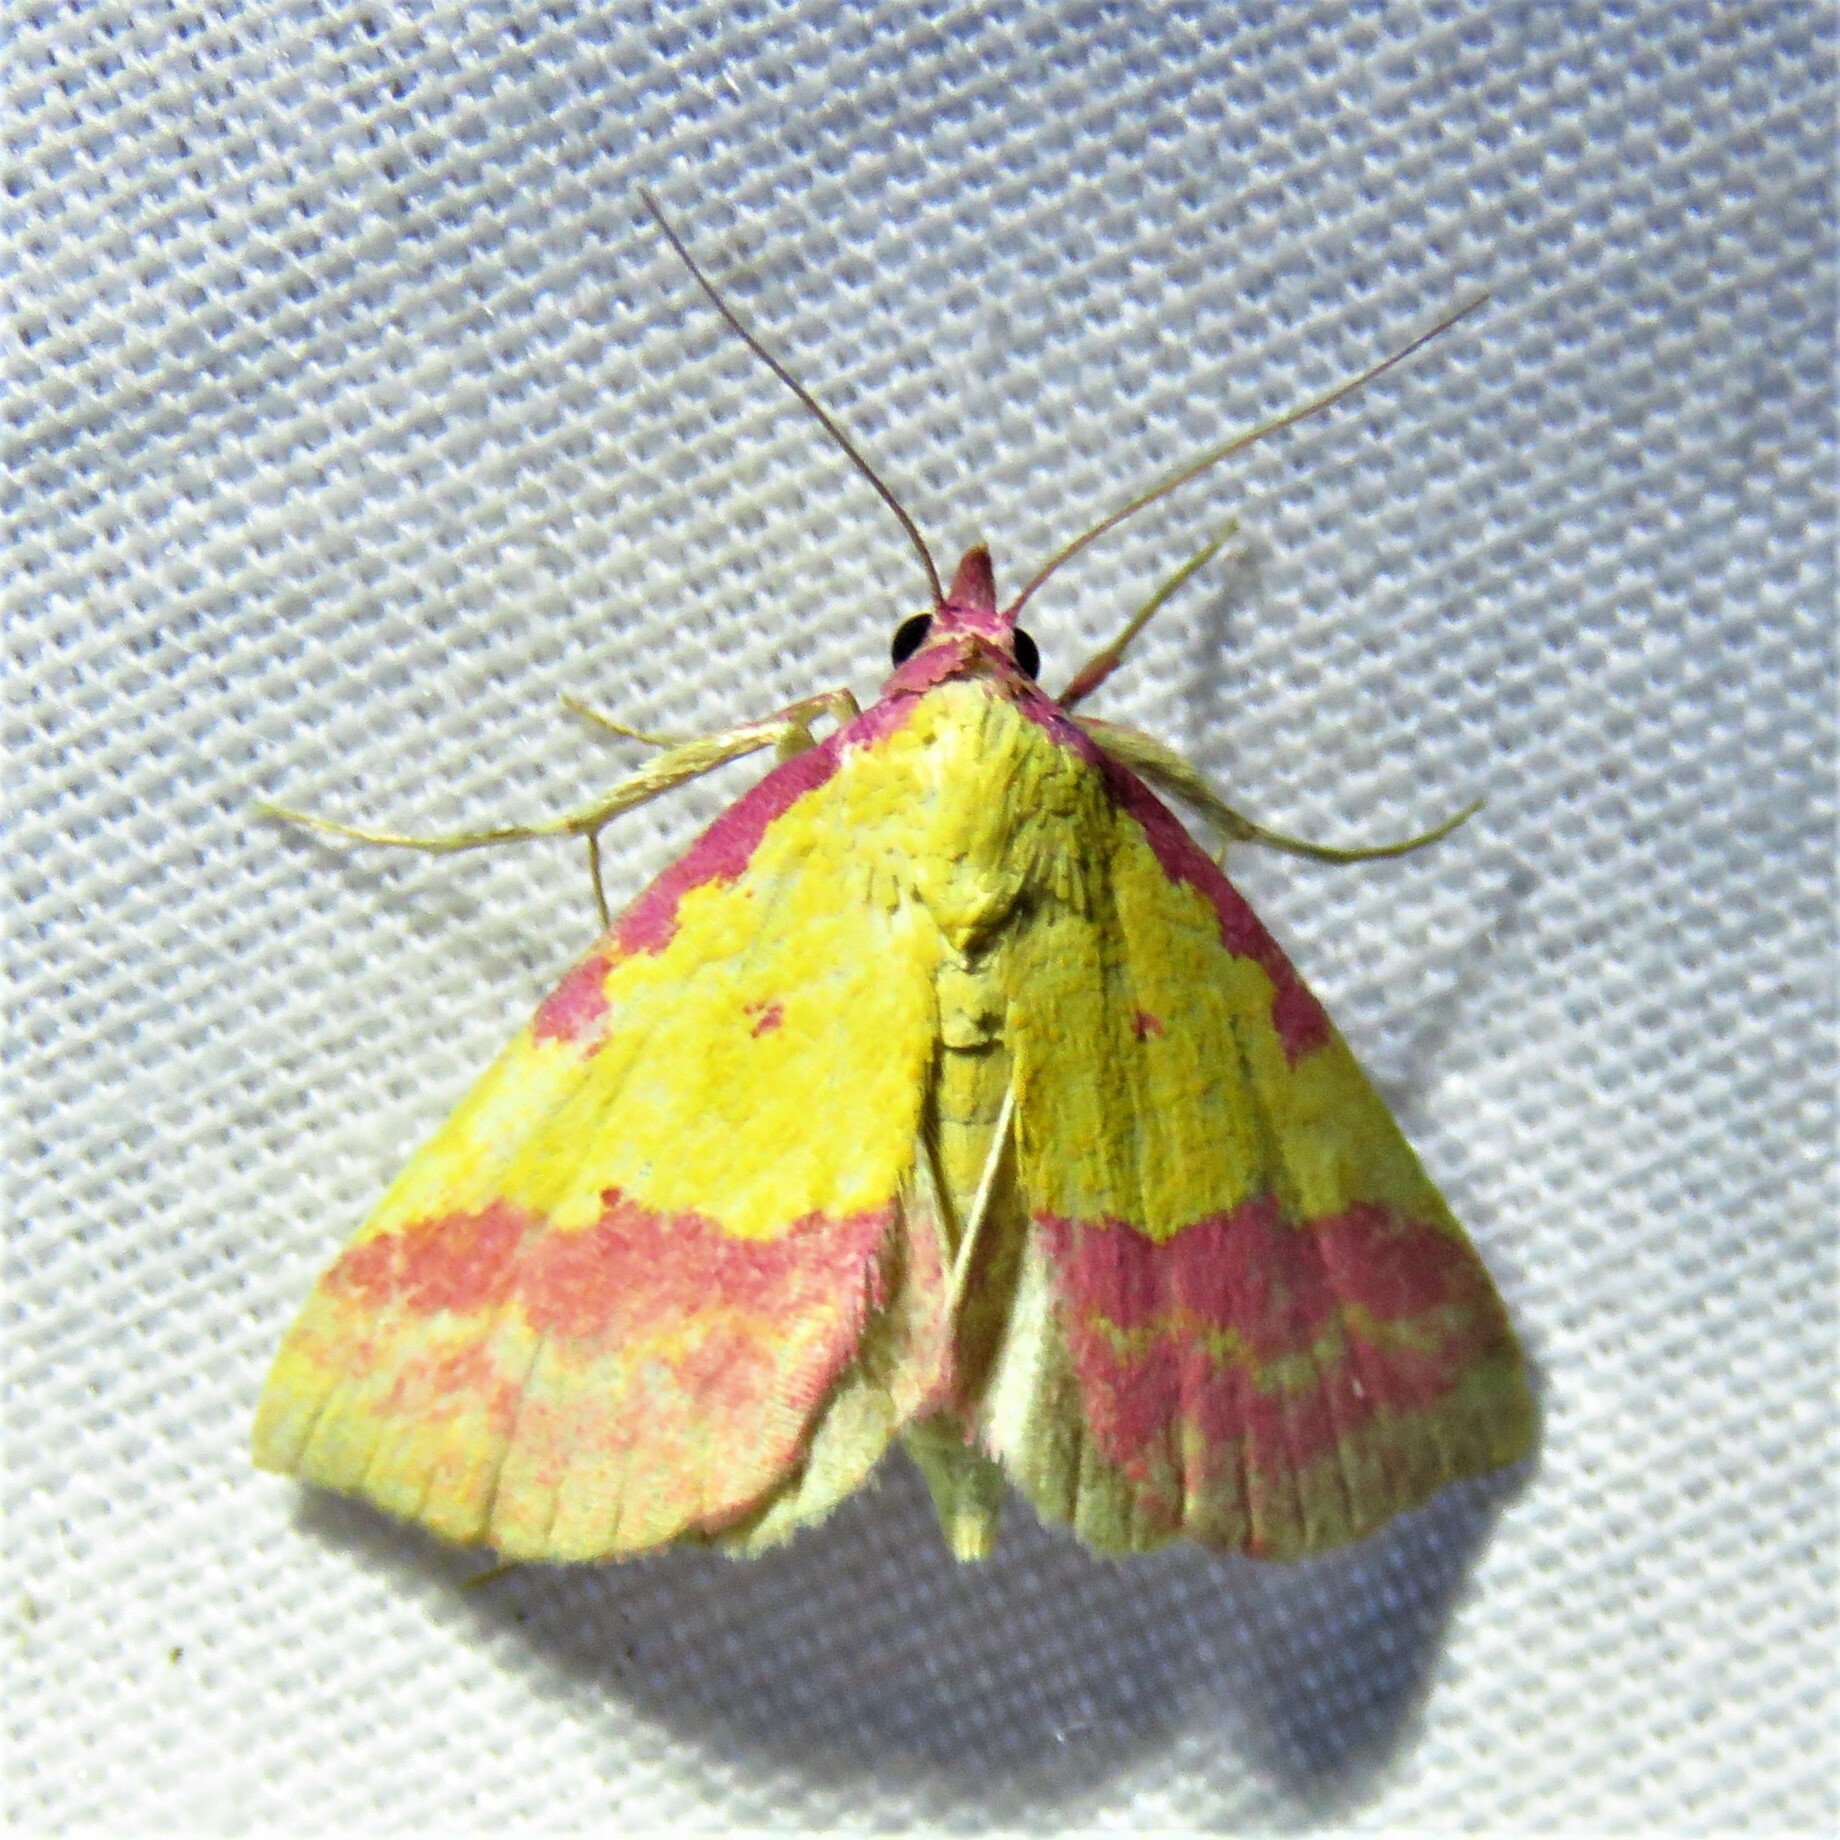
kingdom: Animalia
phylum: Arthropoda
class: Insecta
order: Lepidoptera
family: Erebidae
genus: Phytometra
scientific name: Phytometra rhodarialis
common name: Pink-bordered yellow
